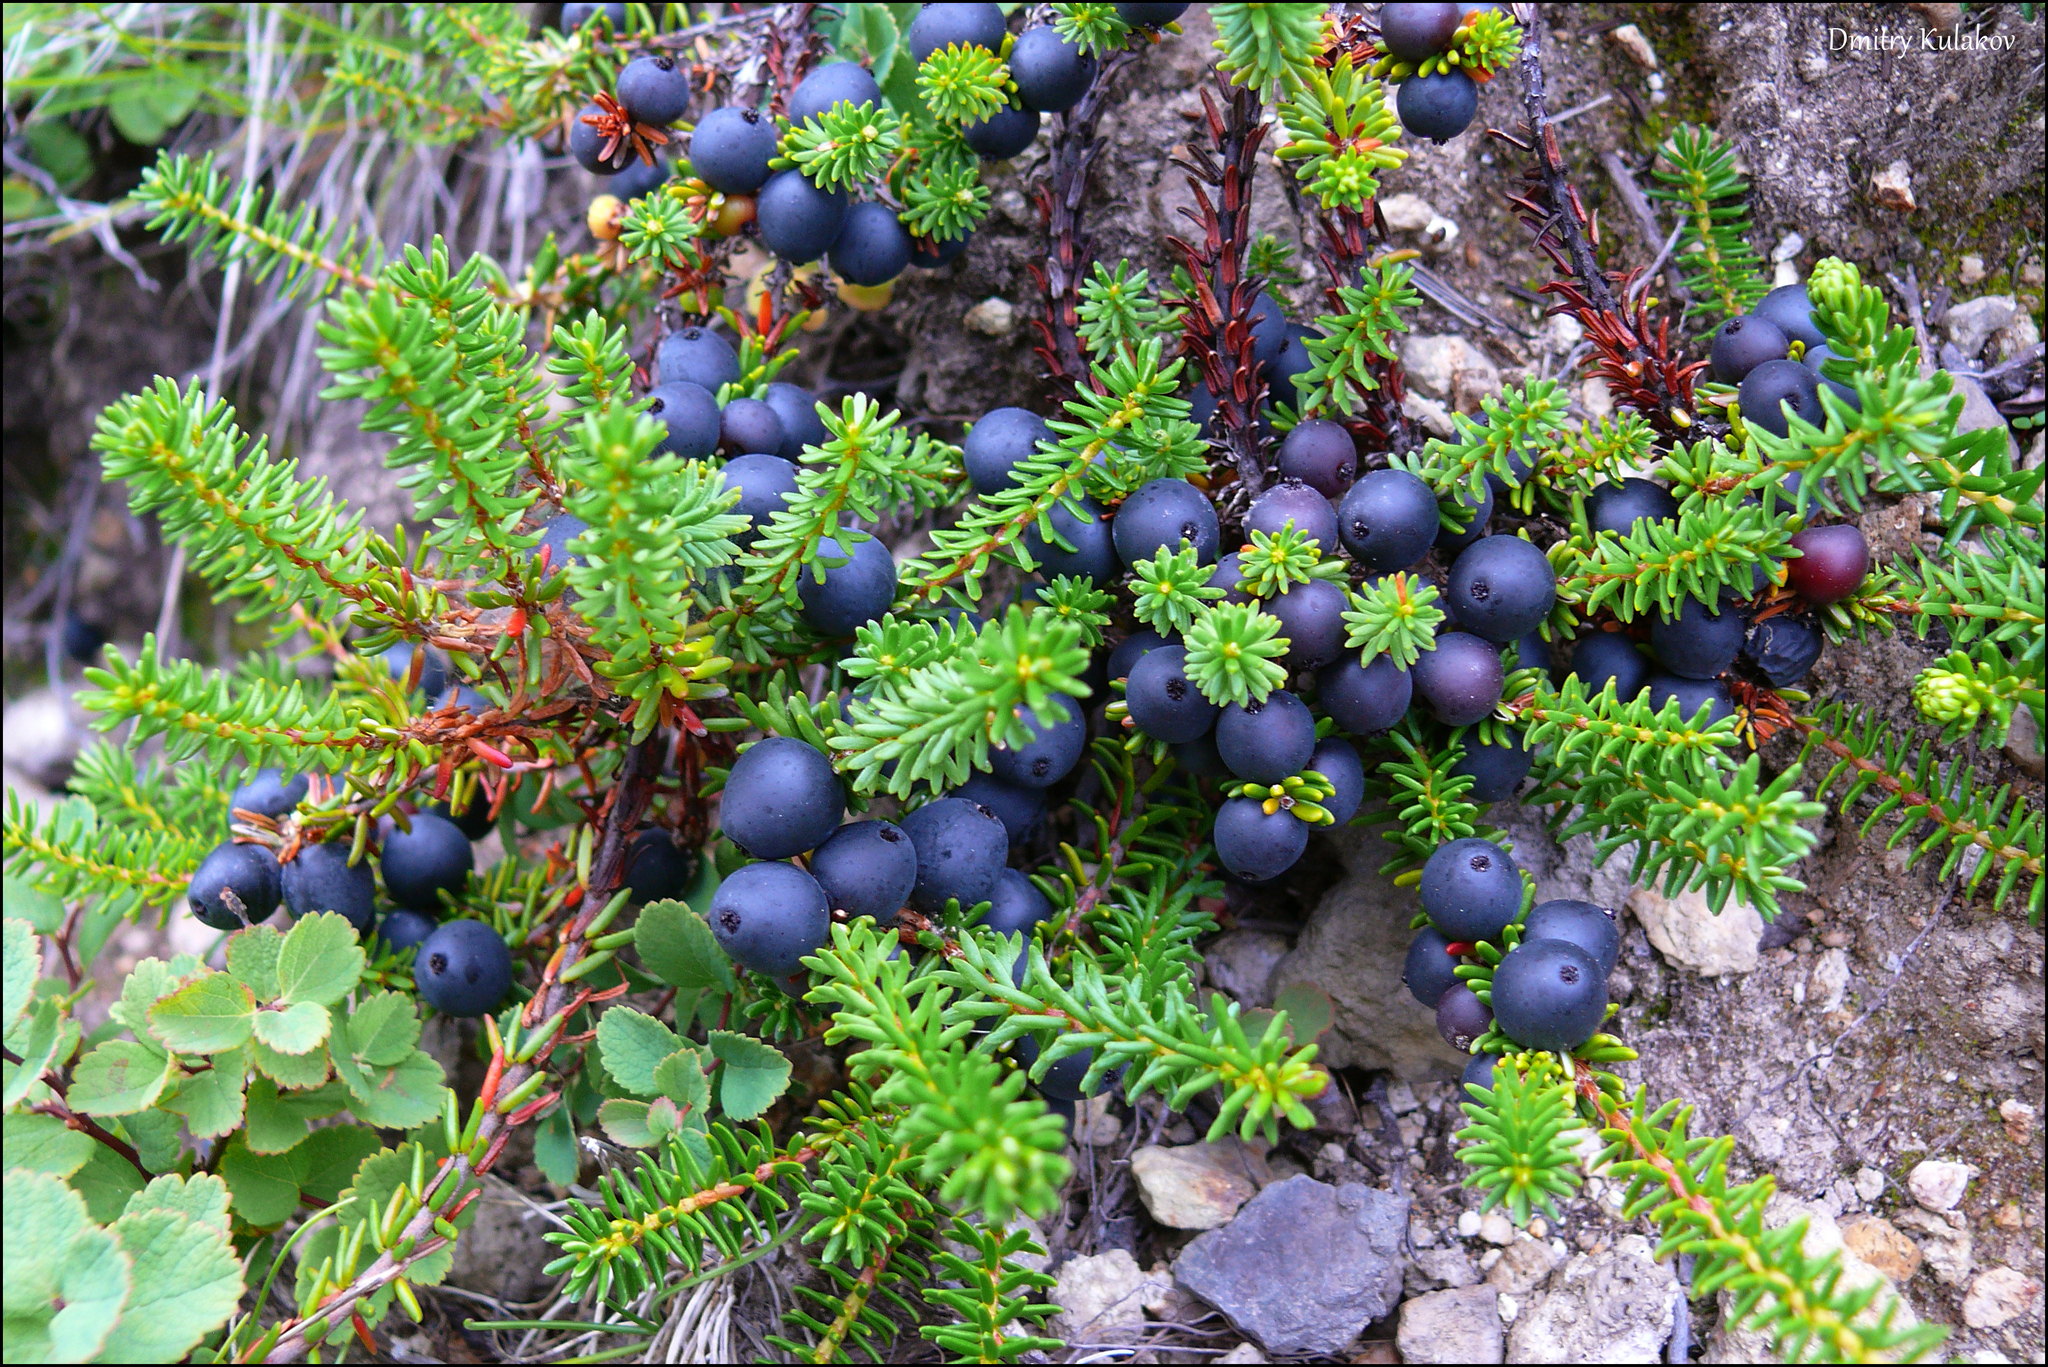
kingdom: Plantae
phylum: Tracheophyta
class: Magnoliopsida
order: Ericales
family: Ericaceae
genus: Empetrum
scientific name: Empetrum nigrum
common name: Black crowberry
